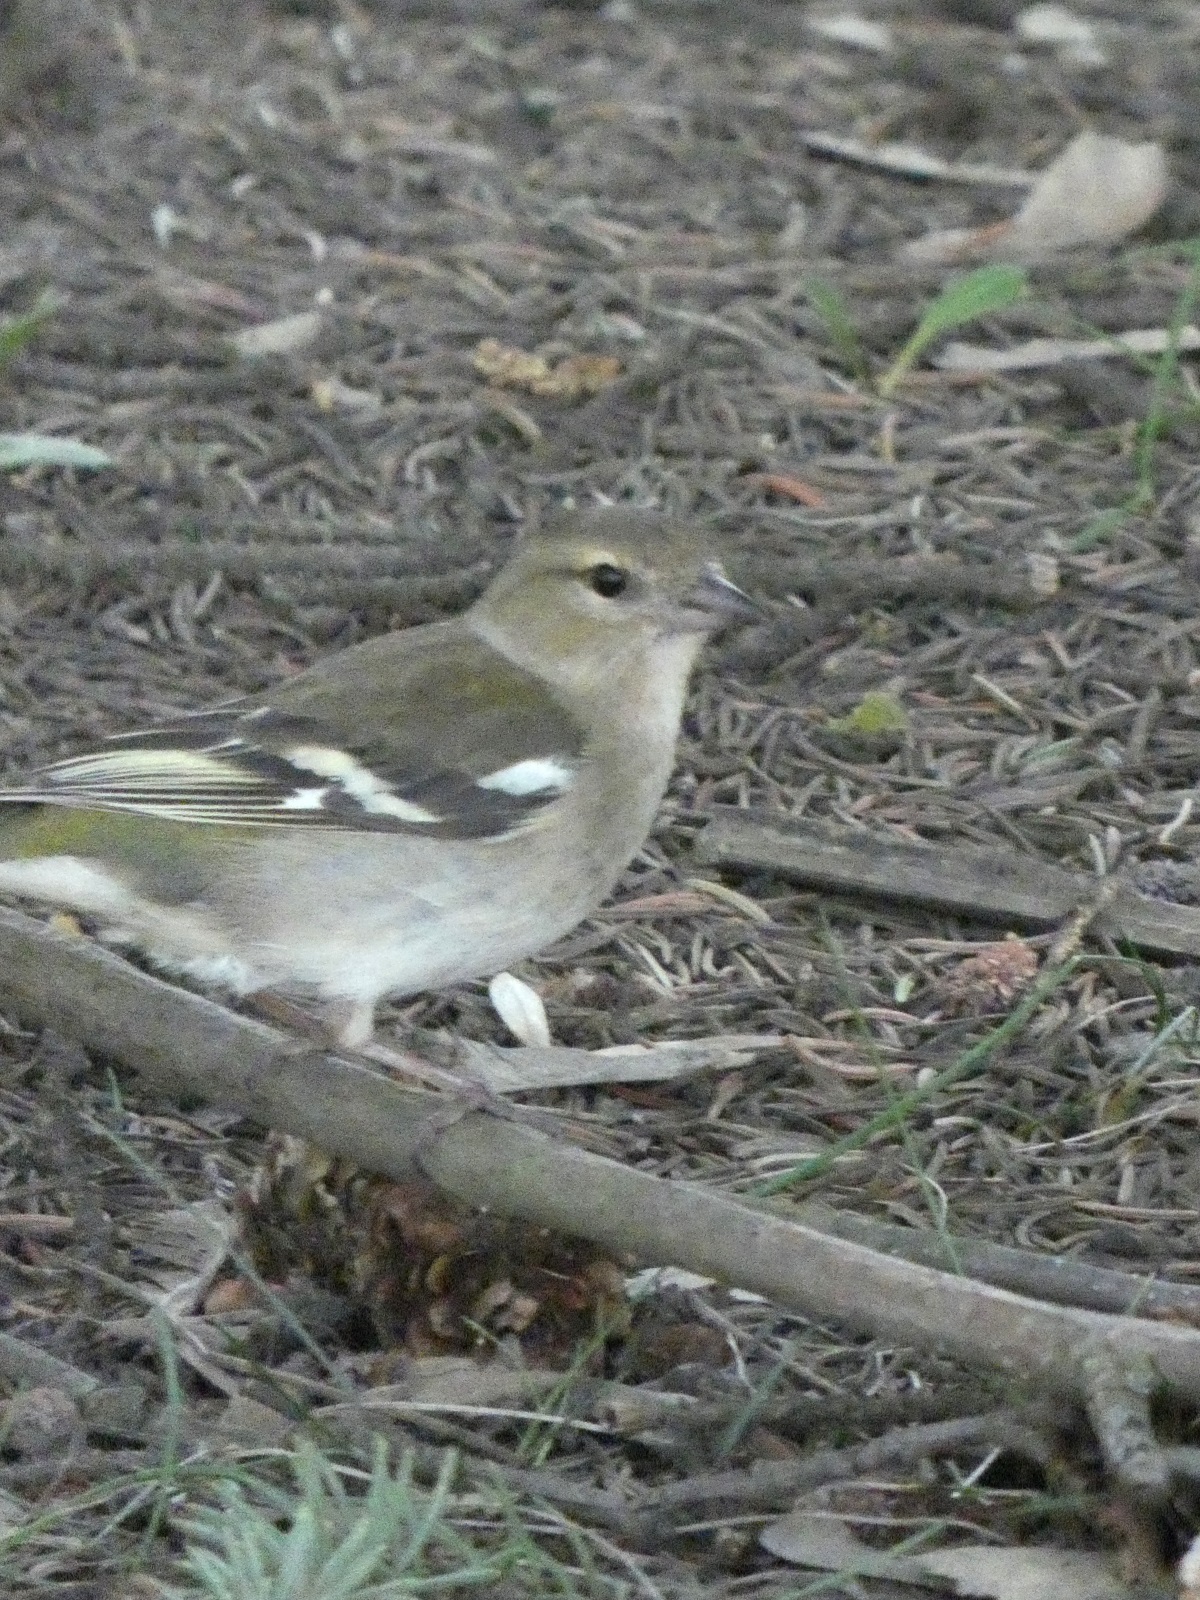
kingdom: Animalia
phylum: Chordata
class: Aves
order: Passeriformes
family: Fringillidae
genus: Fringilla
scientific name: Fringilla coelebs
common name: Common chaffinch
